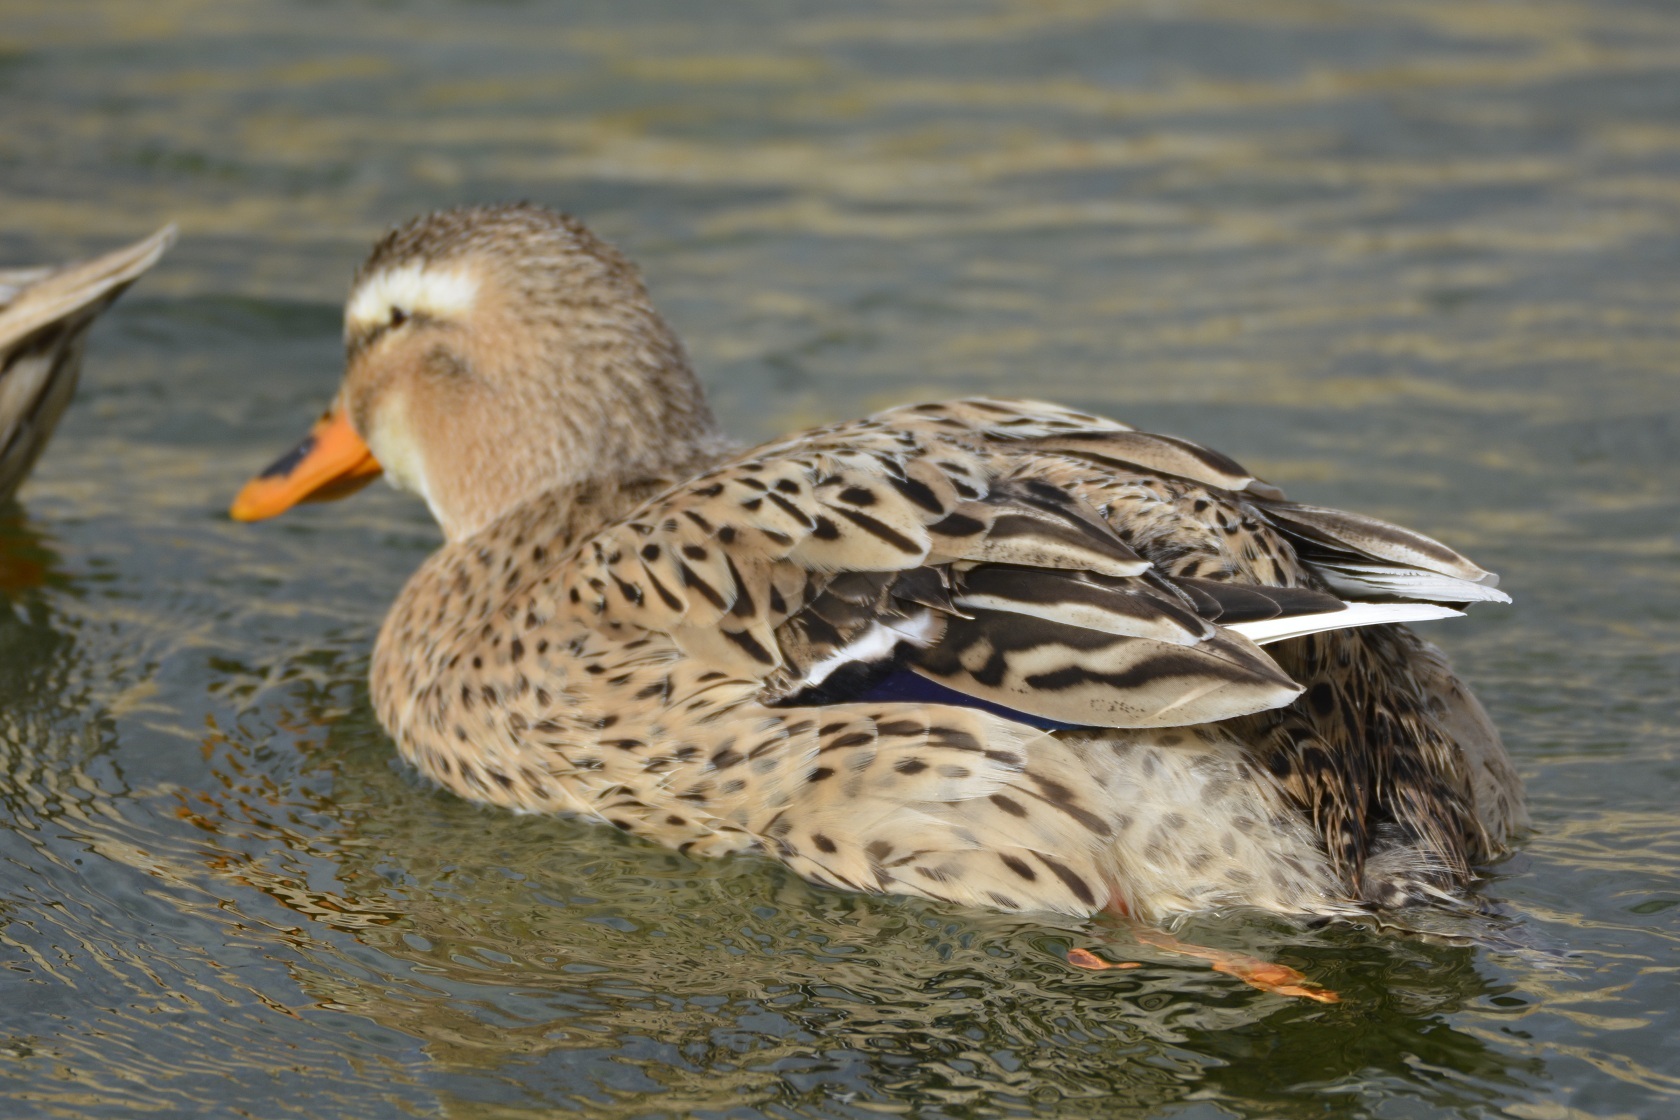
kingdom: Animalia
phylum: Chordata
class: Aves
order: Anseriformes
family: Anatidae
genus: Anas
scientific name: Anas platyrhynchos
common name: Mallard
